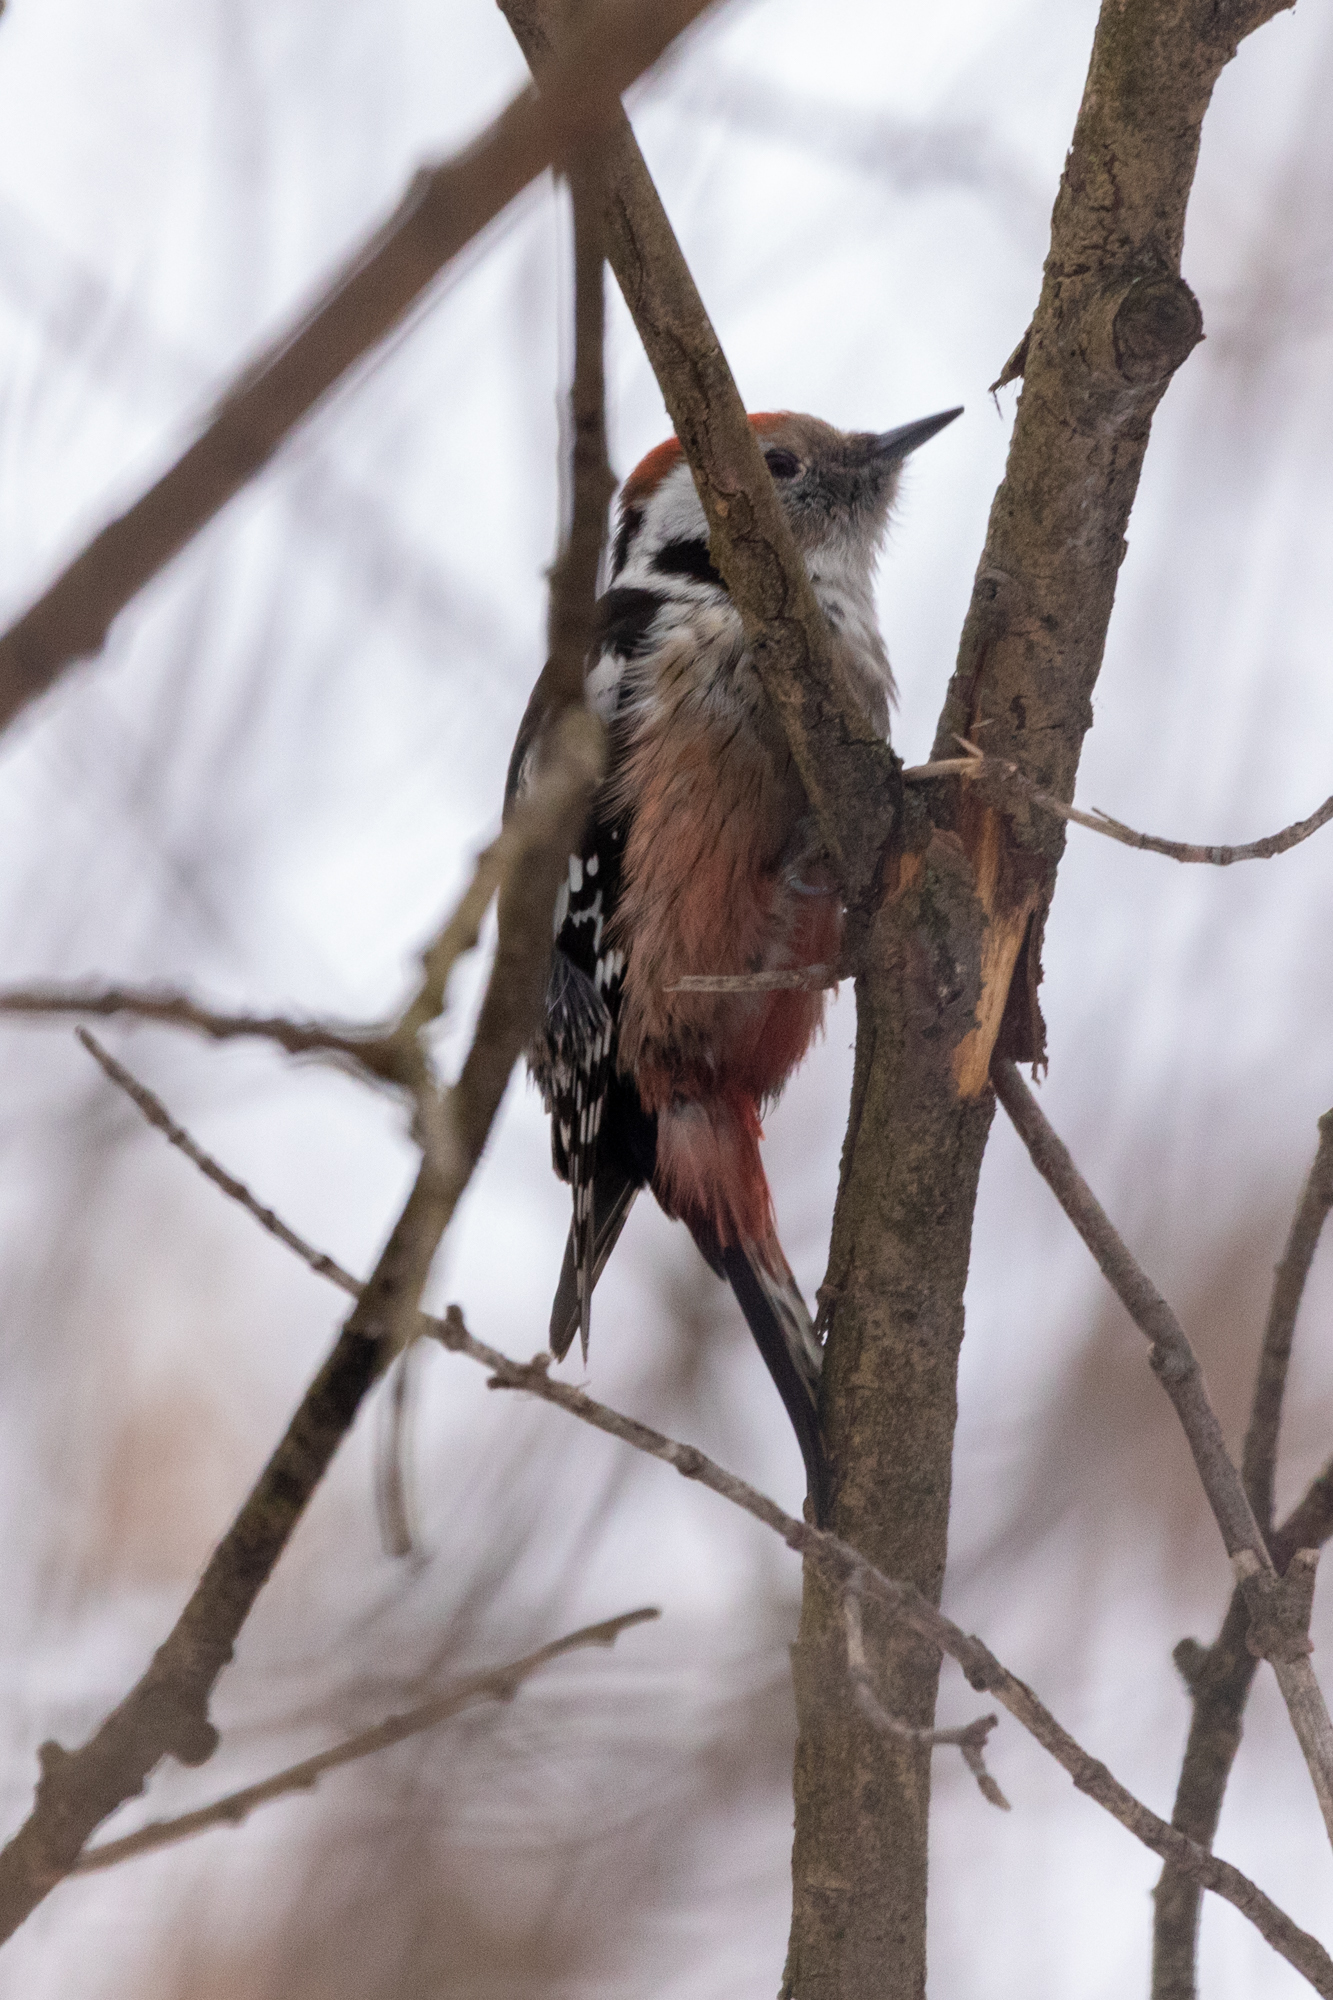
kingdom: Animalia
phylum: Chordata
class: Aves
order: Piciformes
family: Picidae
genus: Dendrocoptes
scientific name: Dendrocoptes medius
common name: Middle spotted woodpecker
